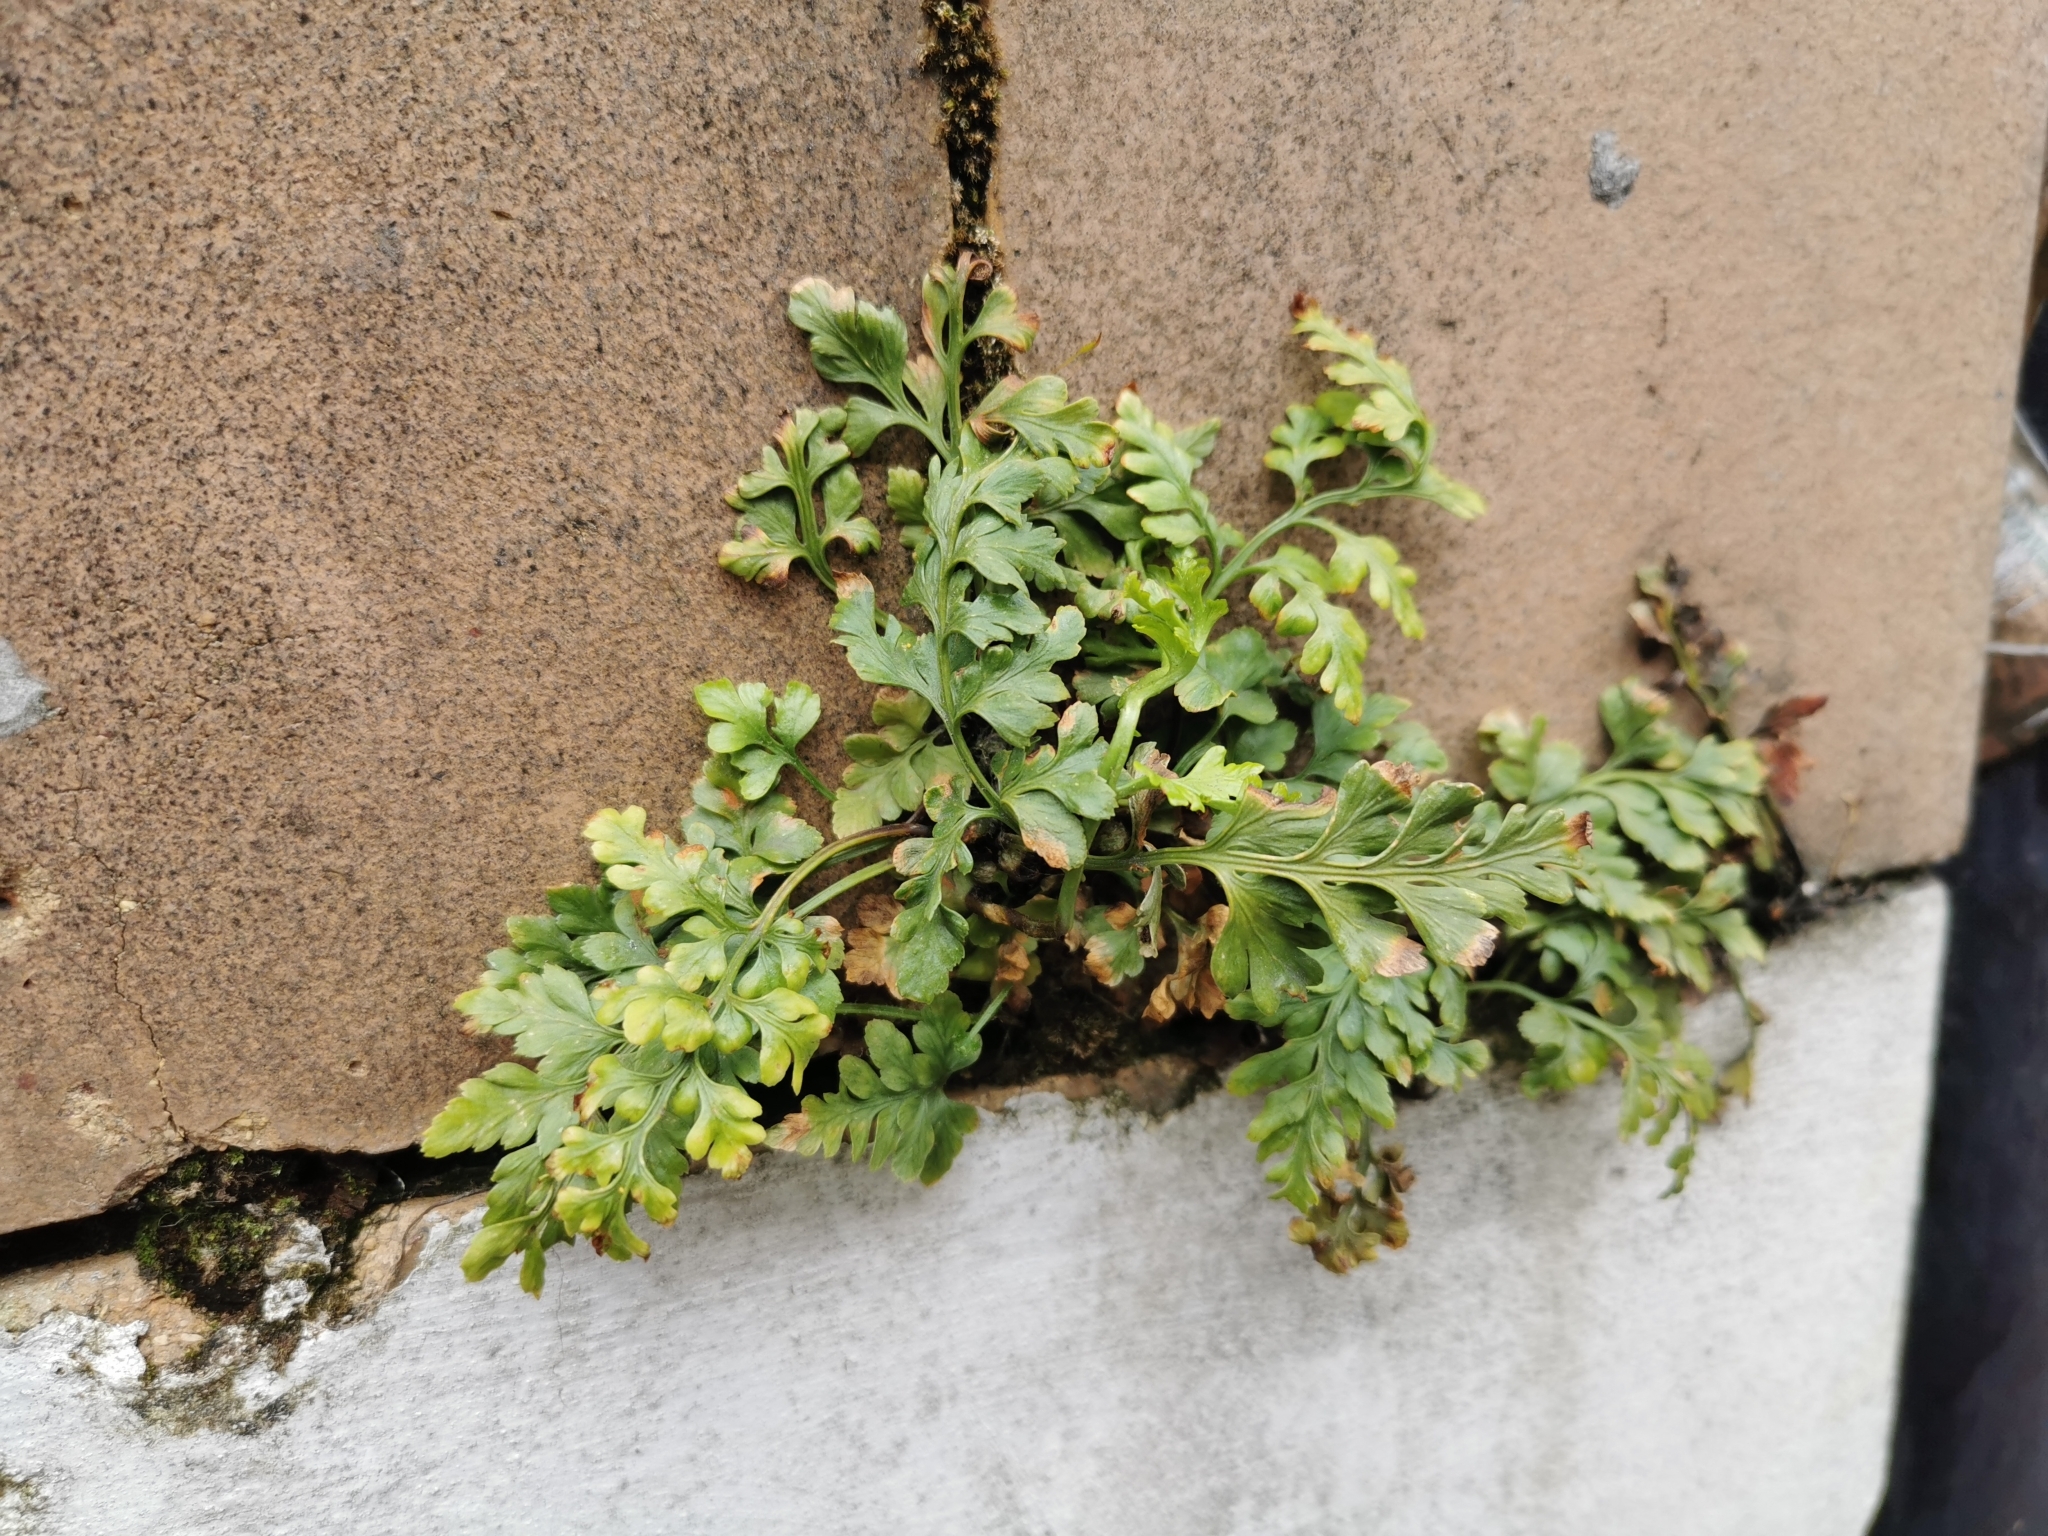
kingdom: Plantae
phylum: Tracheophyta
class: Polypodiopsida
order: Polypodiales
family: Aspleniaceae
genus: Asplenium
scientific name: Asplenium ruta-muraria
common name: Wall-rue
